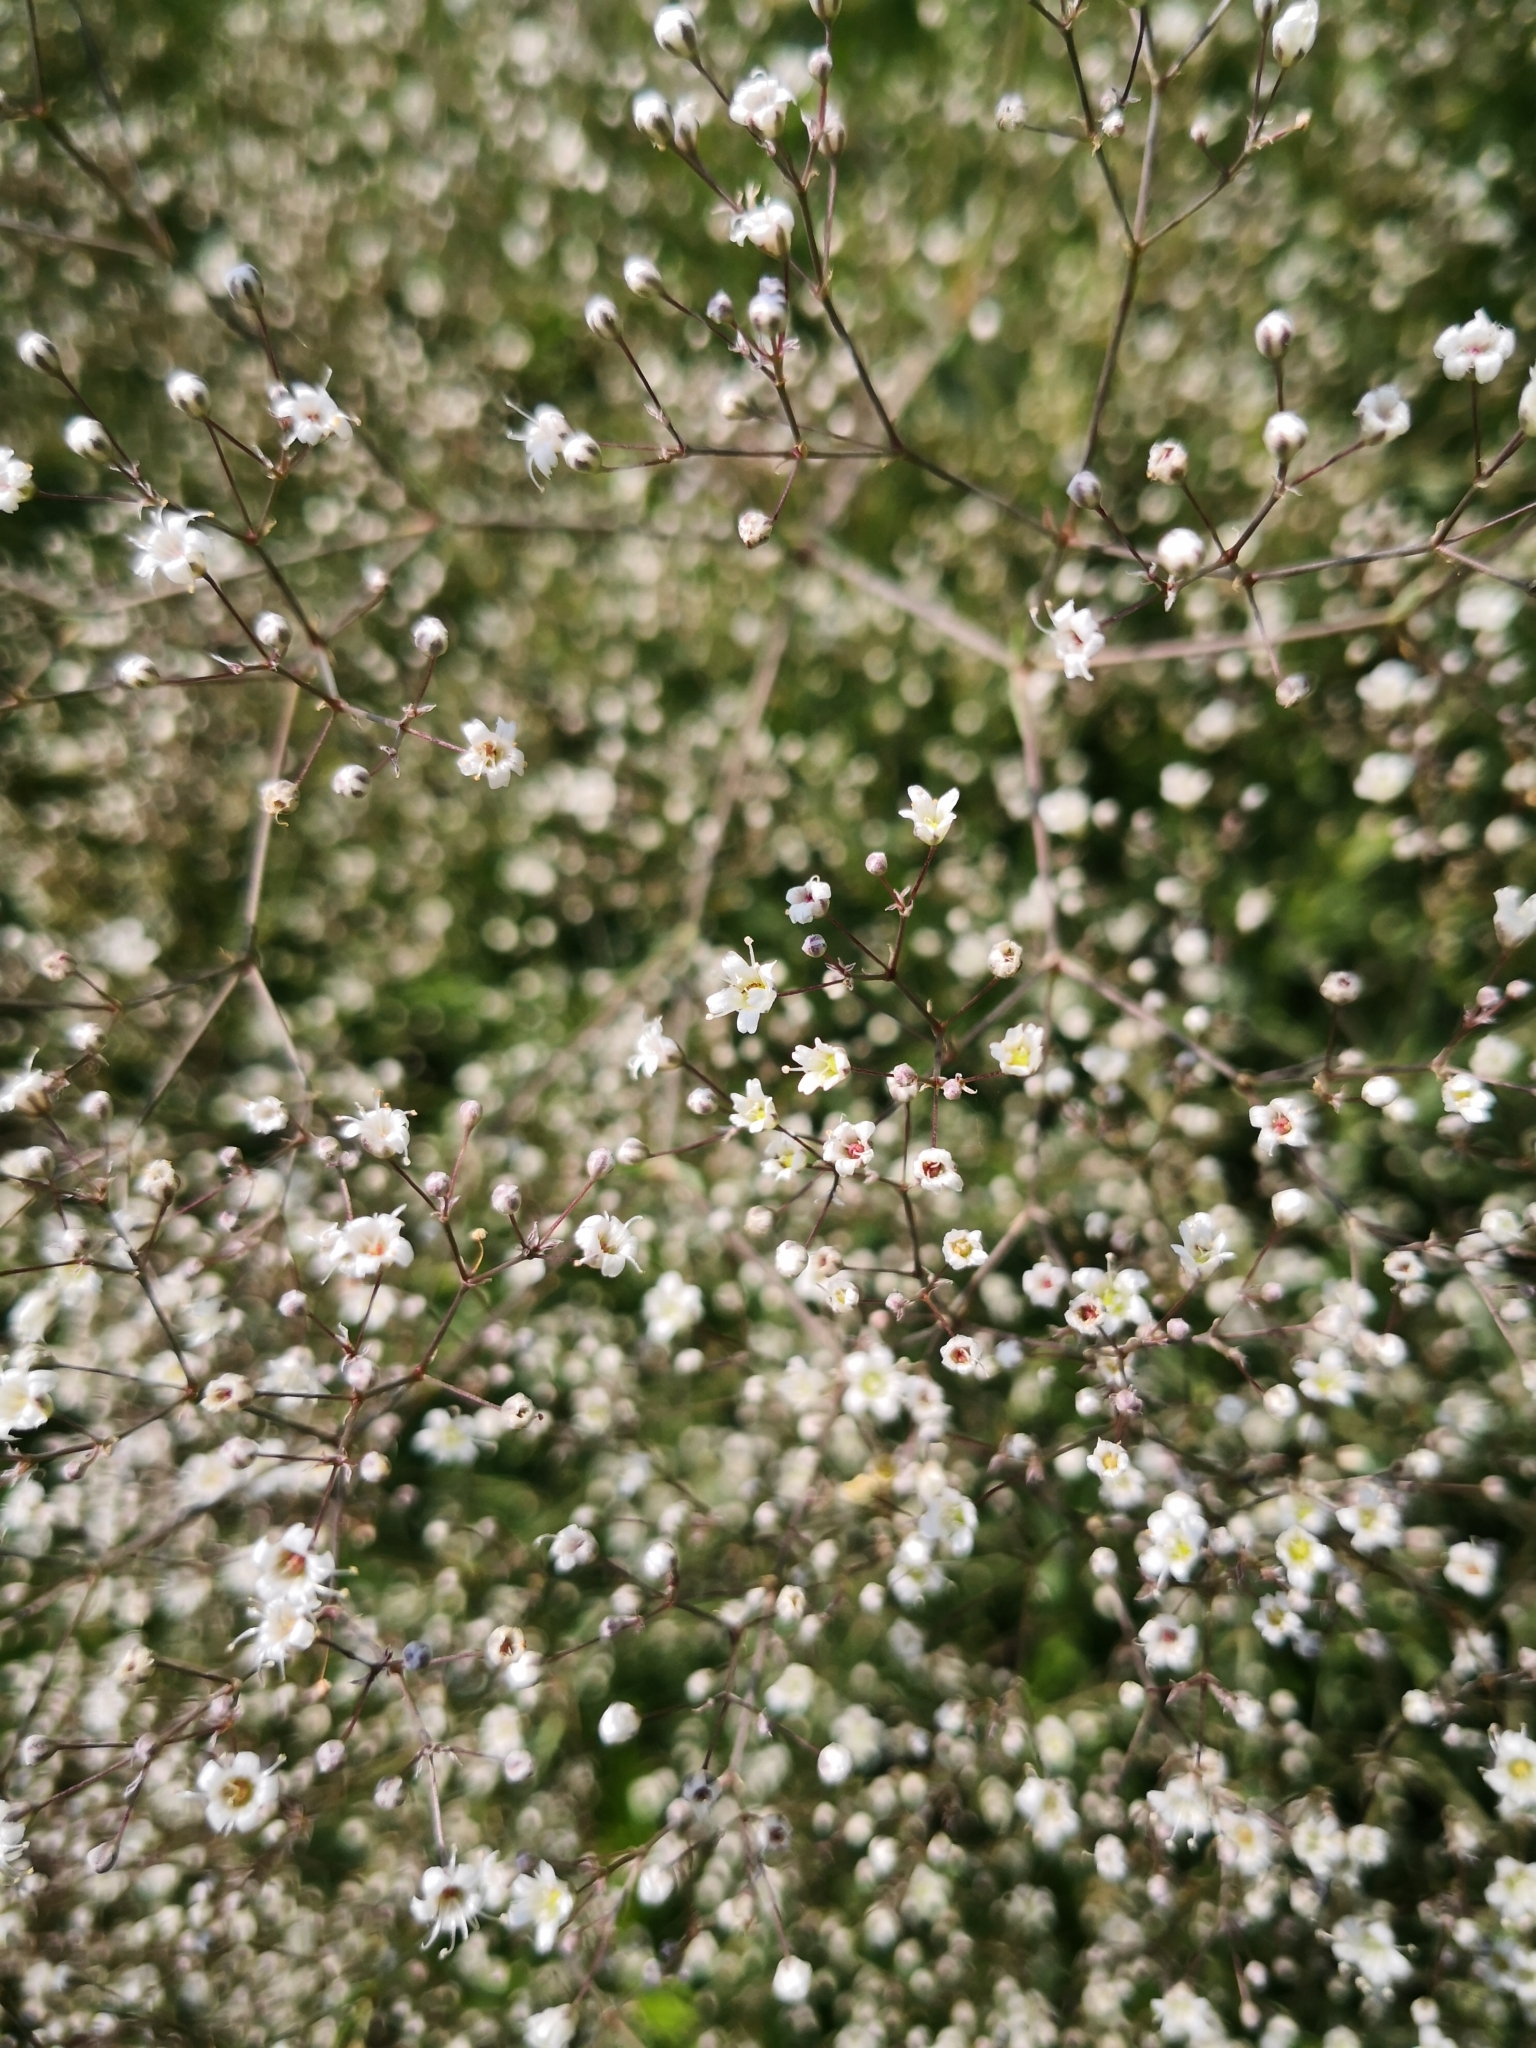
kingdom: Plantae
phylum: Tracheophyta
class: Magnoliopsida
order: Caryophyllales
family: Caryophyllaceae
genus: Gypsophila
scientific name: Gypsophila paniculata
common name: Baby's-breath
